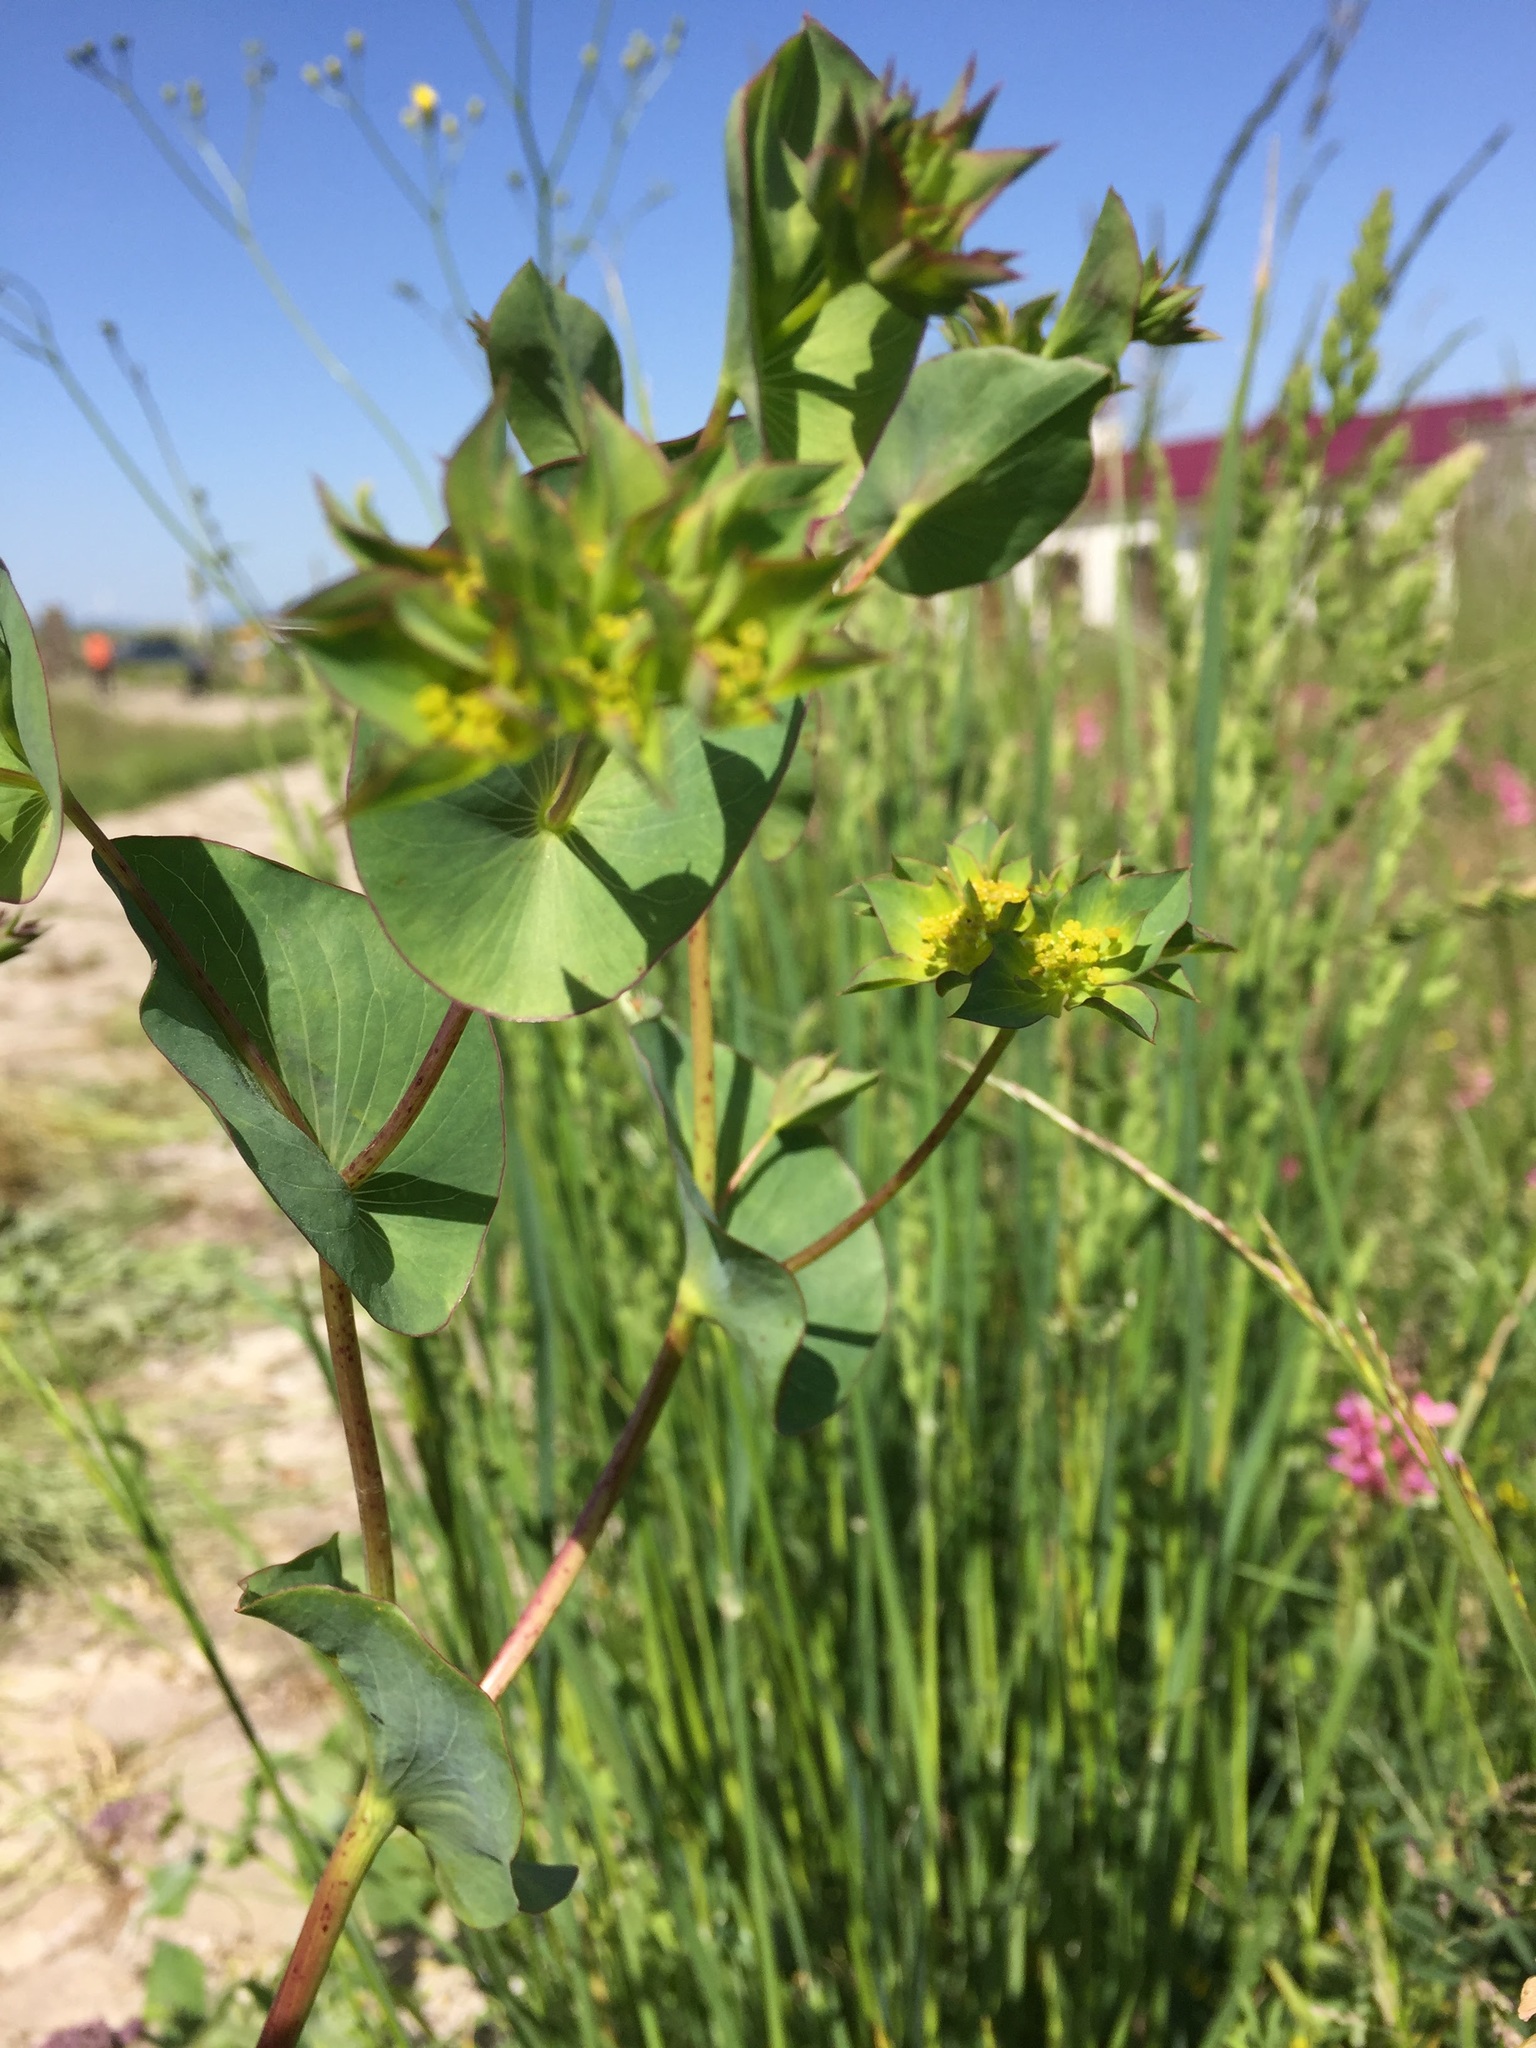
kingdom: Plantae
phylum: Tracheophyta
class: Magnoliopsida
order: Apiales
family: Apiaceae
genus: Bupleurum
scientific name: Bupleurum rotundifolium
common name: Thorow-wax
